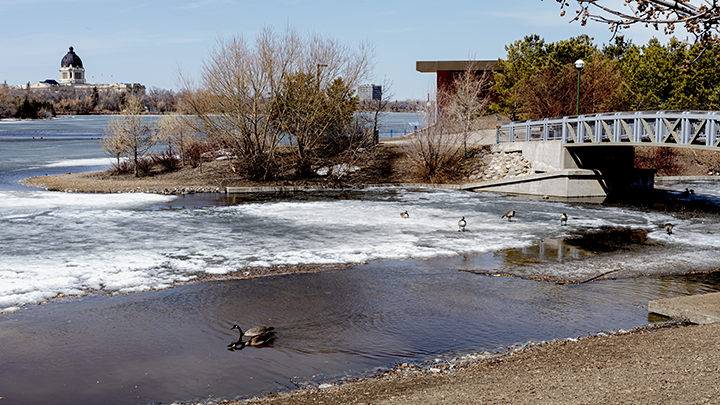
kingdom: Animalia
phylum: Chordata
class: Aves
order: Anseriformes
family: Anatidae
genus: Branta
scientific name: Branta canadensis
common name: Canada goose
